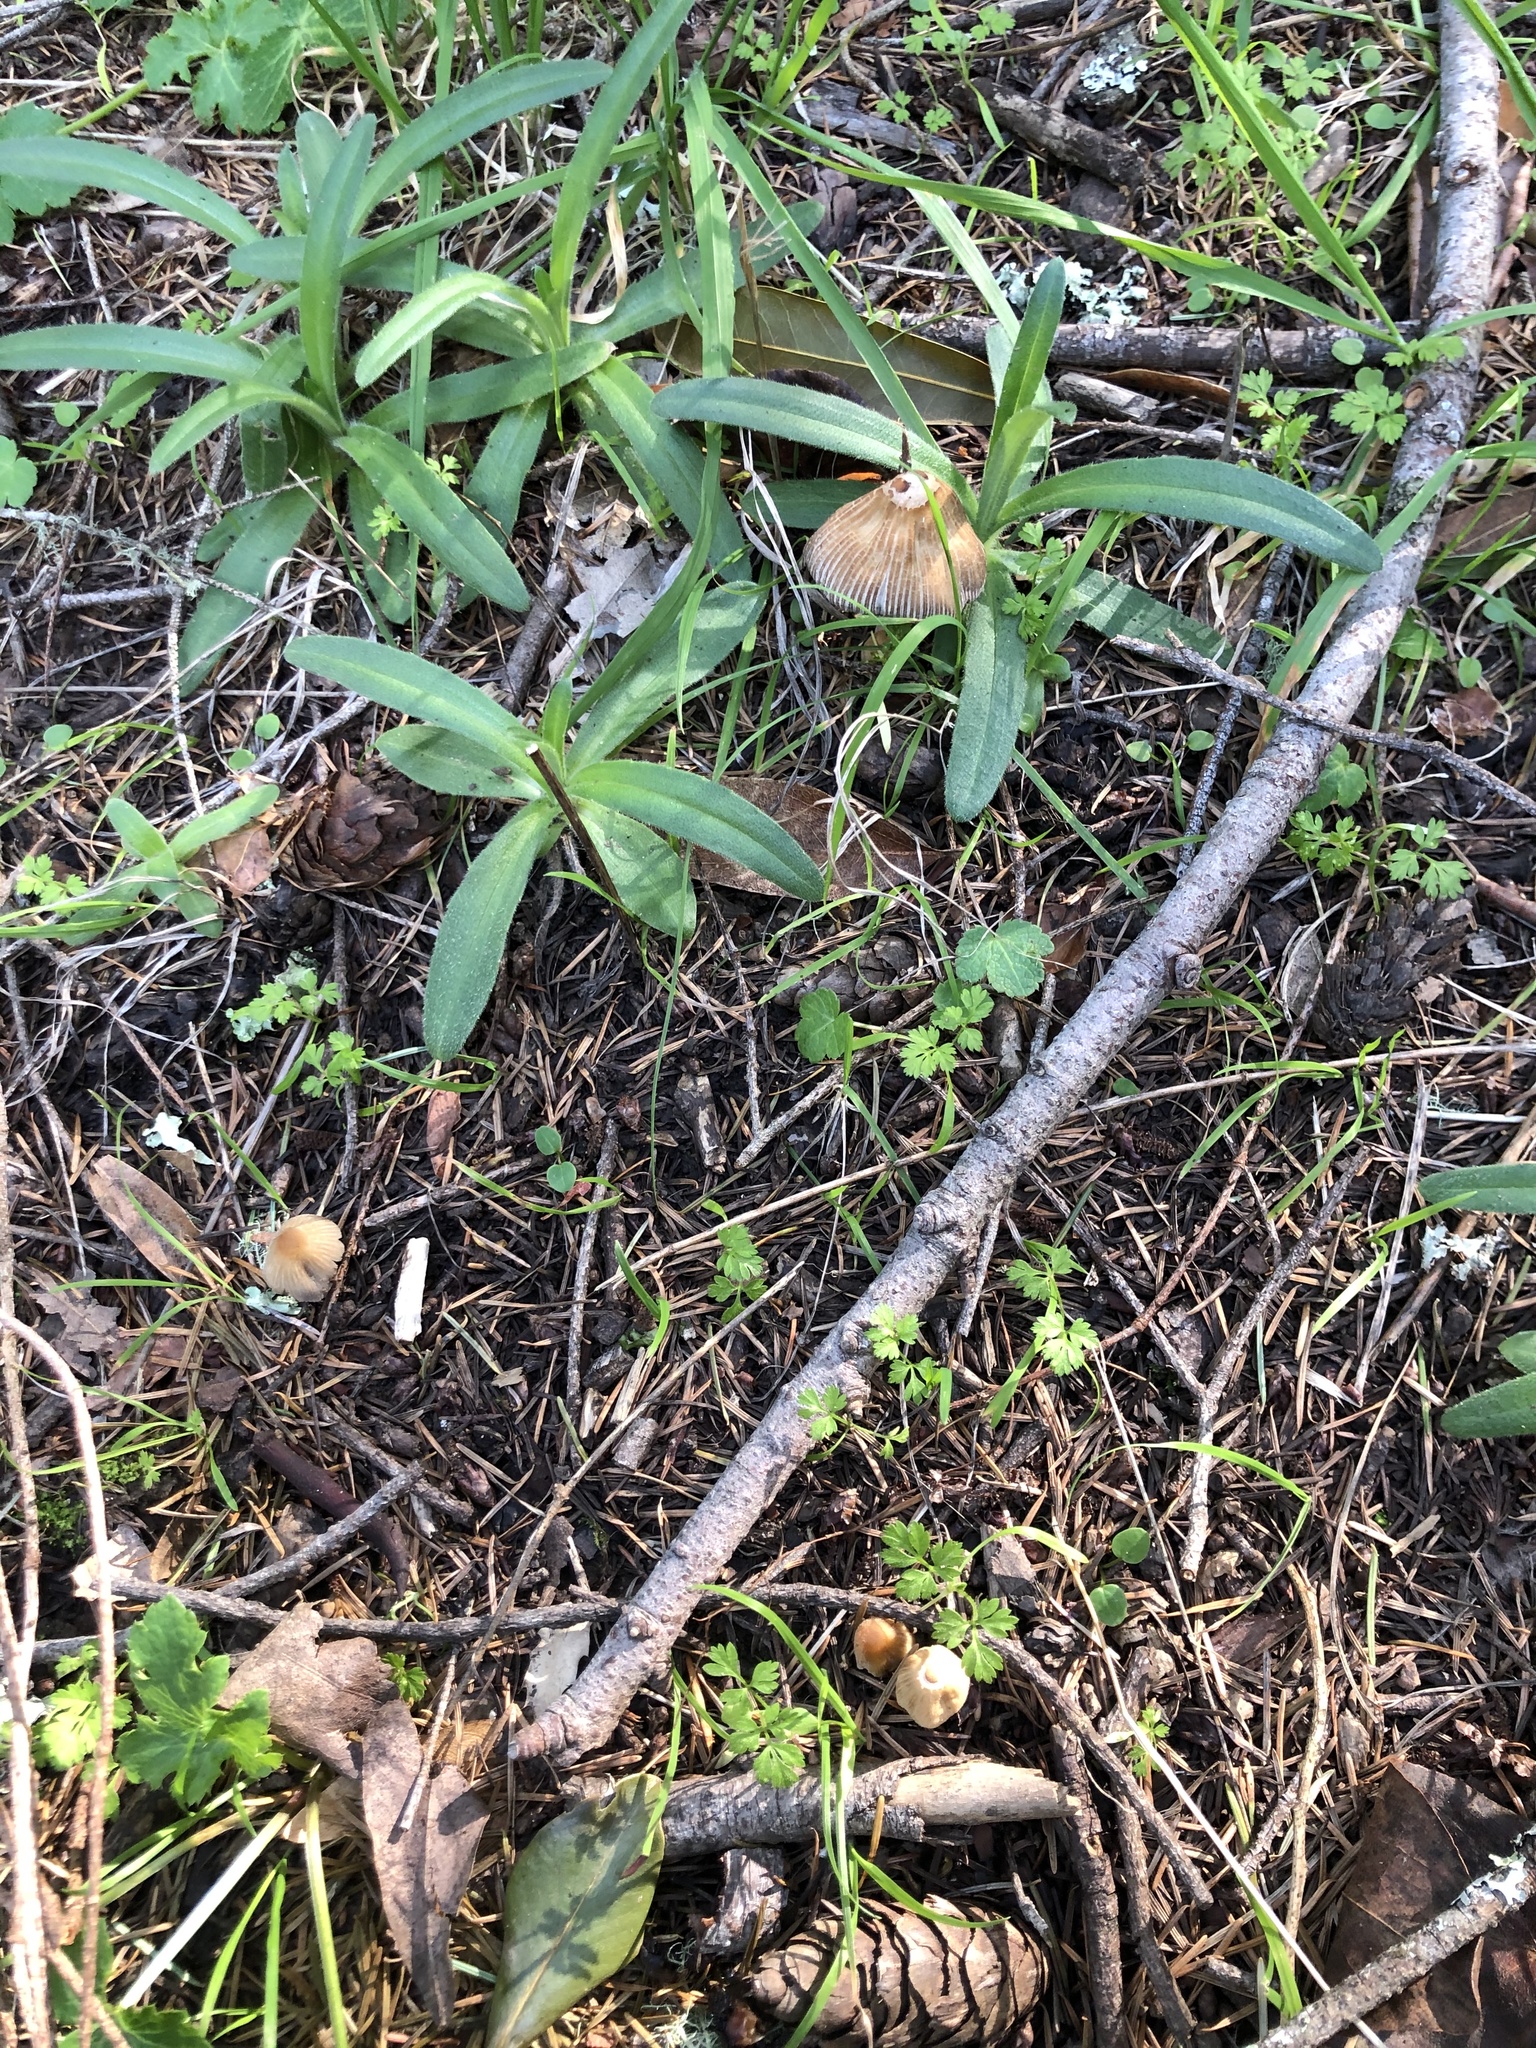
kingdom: Fungi
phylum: Basidiomycota
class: Agaricomycetes
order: Agaricales
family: Psathyrellaceae
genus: Coprinellus
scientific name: Coprinellus micaceus
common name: Glistening ink-cap
